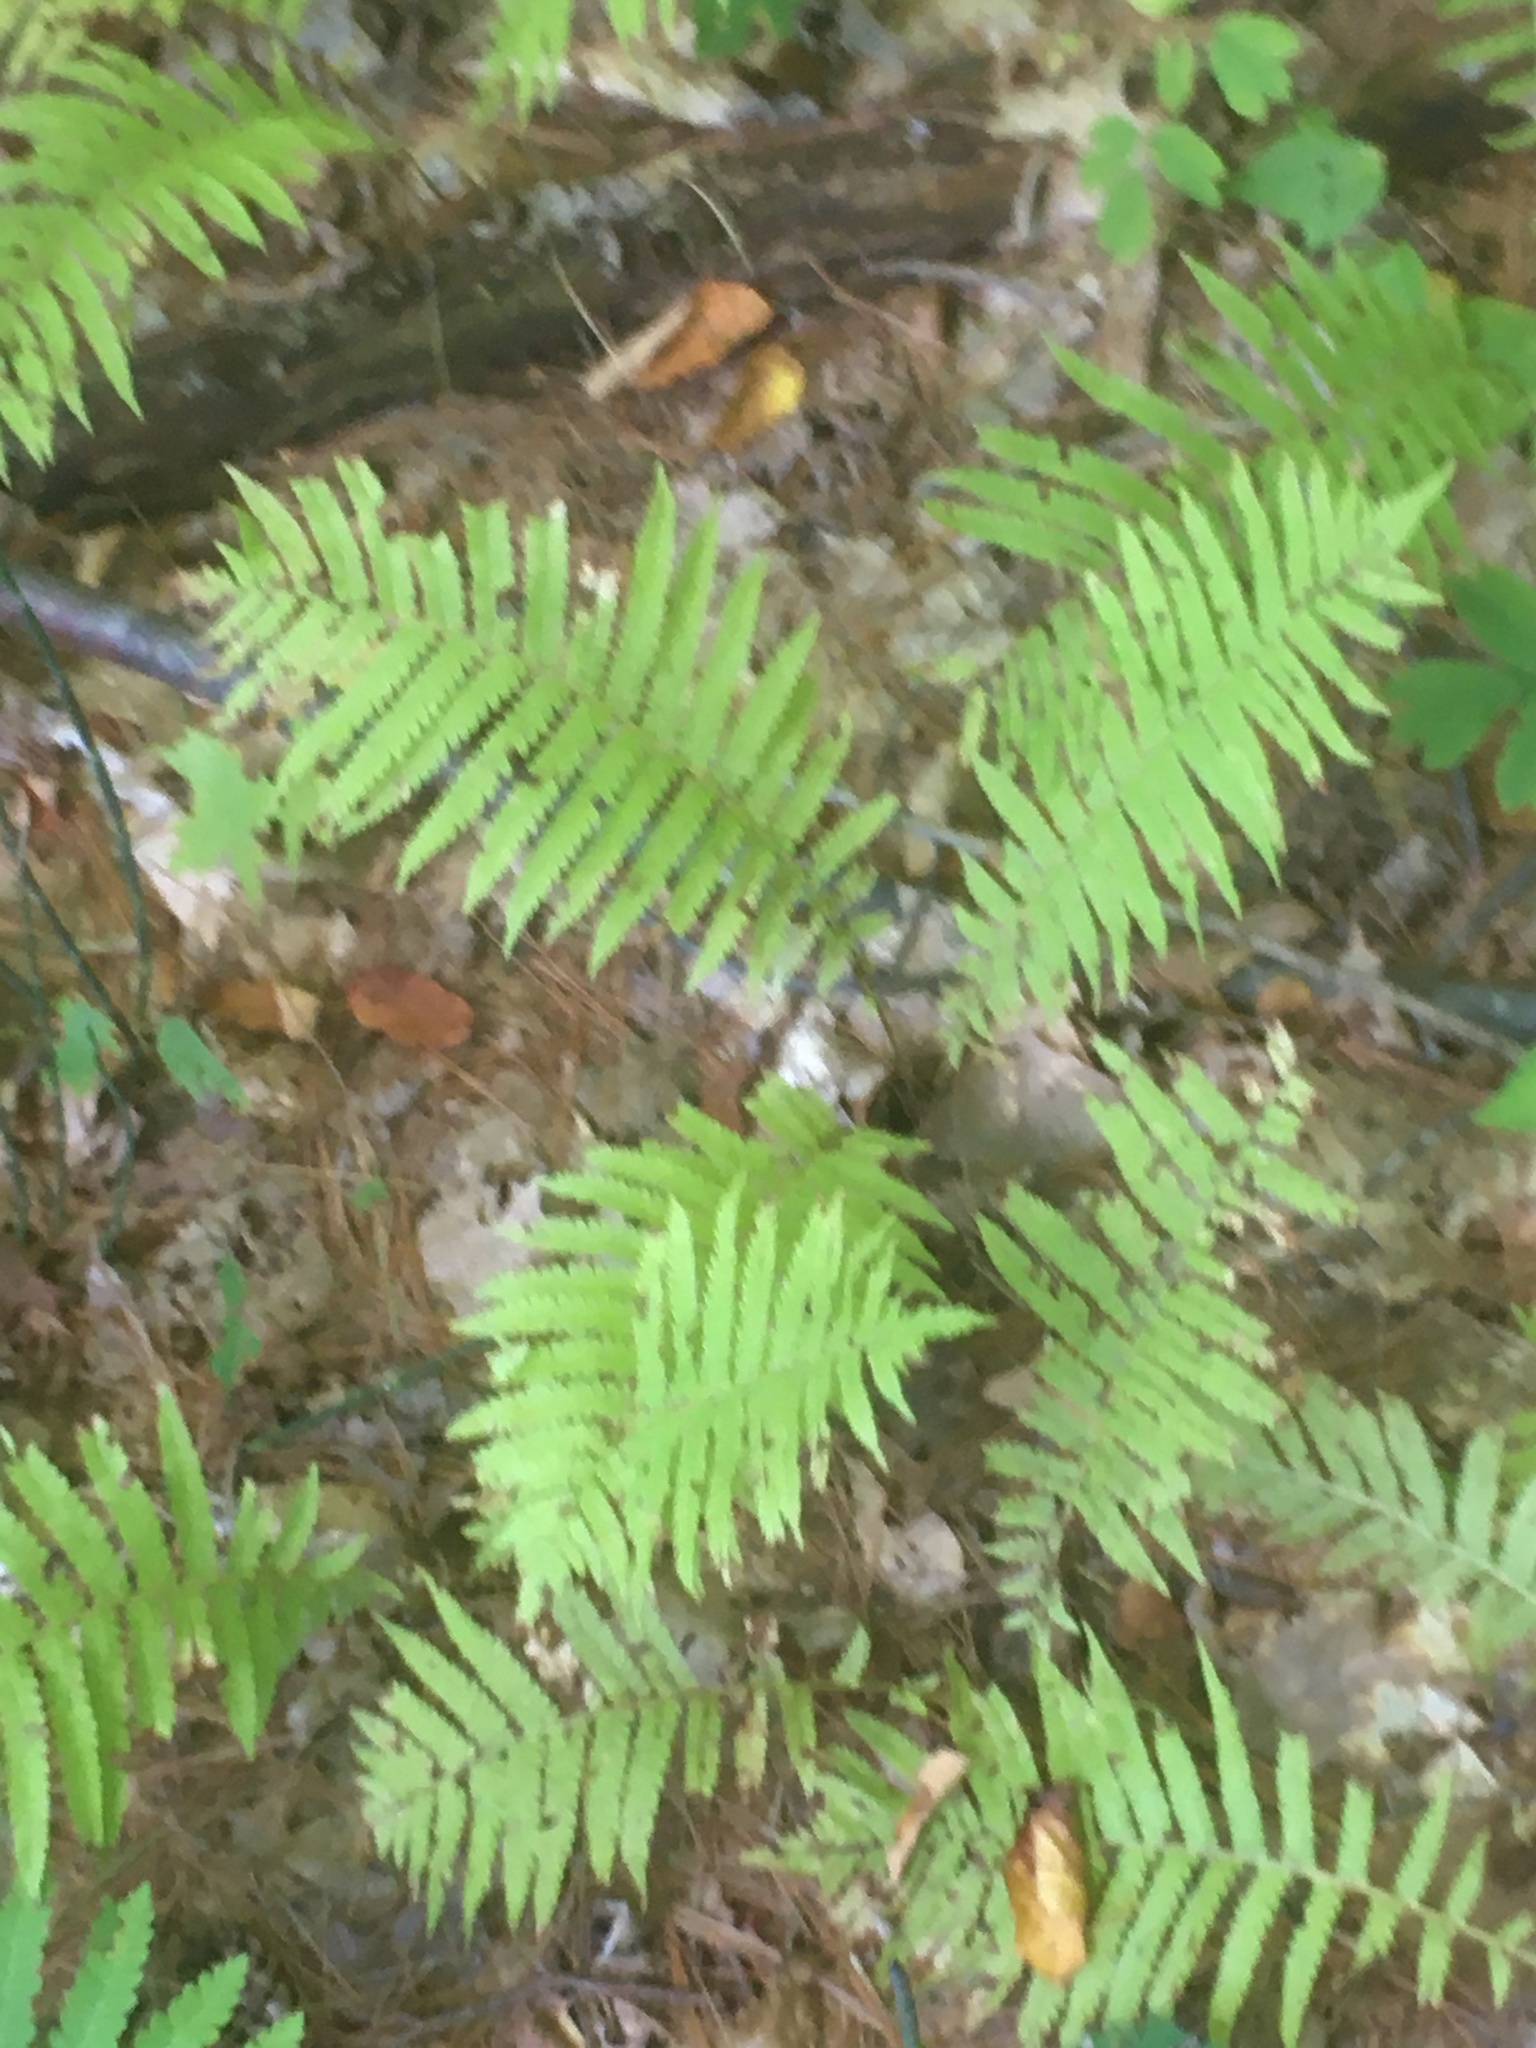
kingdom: Plantae
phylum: Tracheophyta
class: Polypodiopsida
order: Polypodiales
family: Thelypteridaceae
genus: Amauropelta
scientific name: Amauropelta noveboracensis
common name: New york fern
